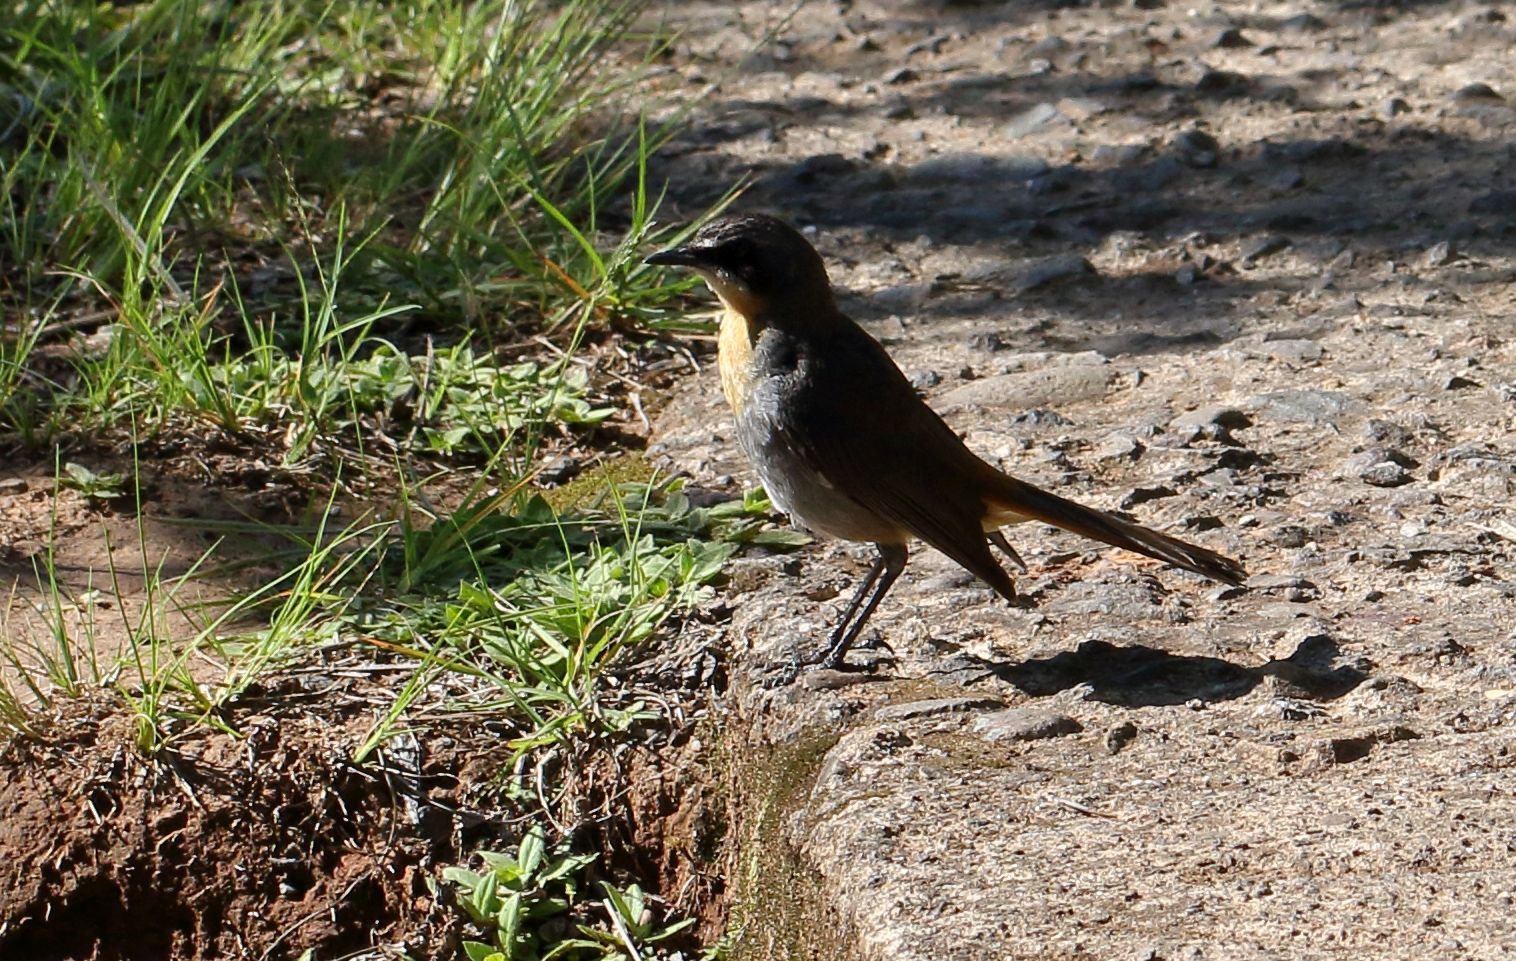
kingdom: Animalia
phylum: Chordata
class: Aves
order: Passeriformes
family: Muscicapidae
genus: Cossypha
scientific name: Cossypha caffra
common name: Cape robin-chat
